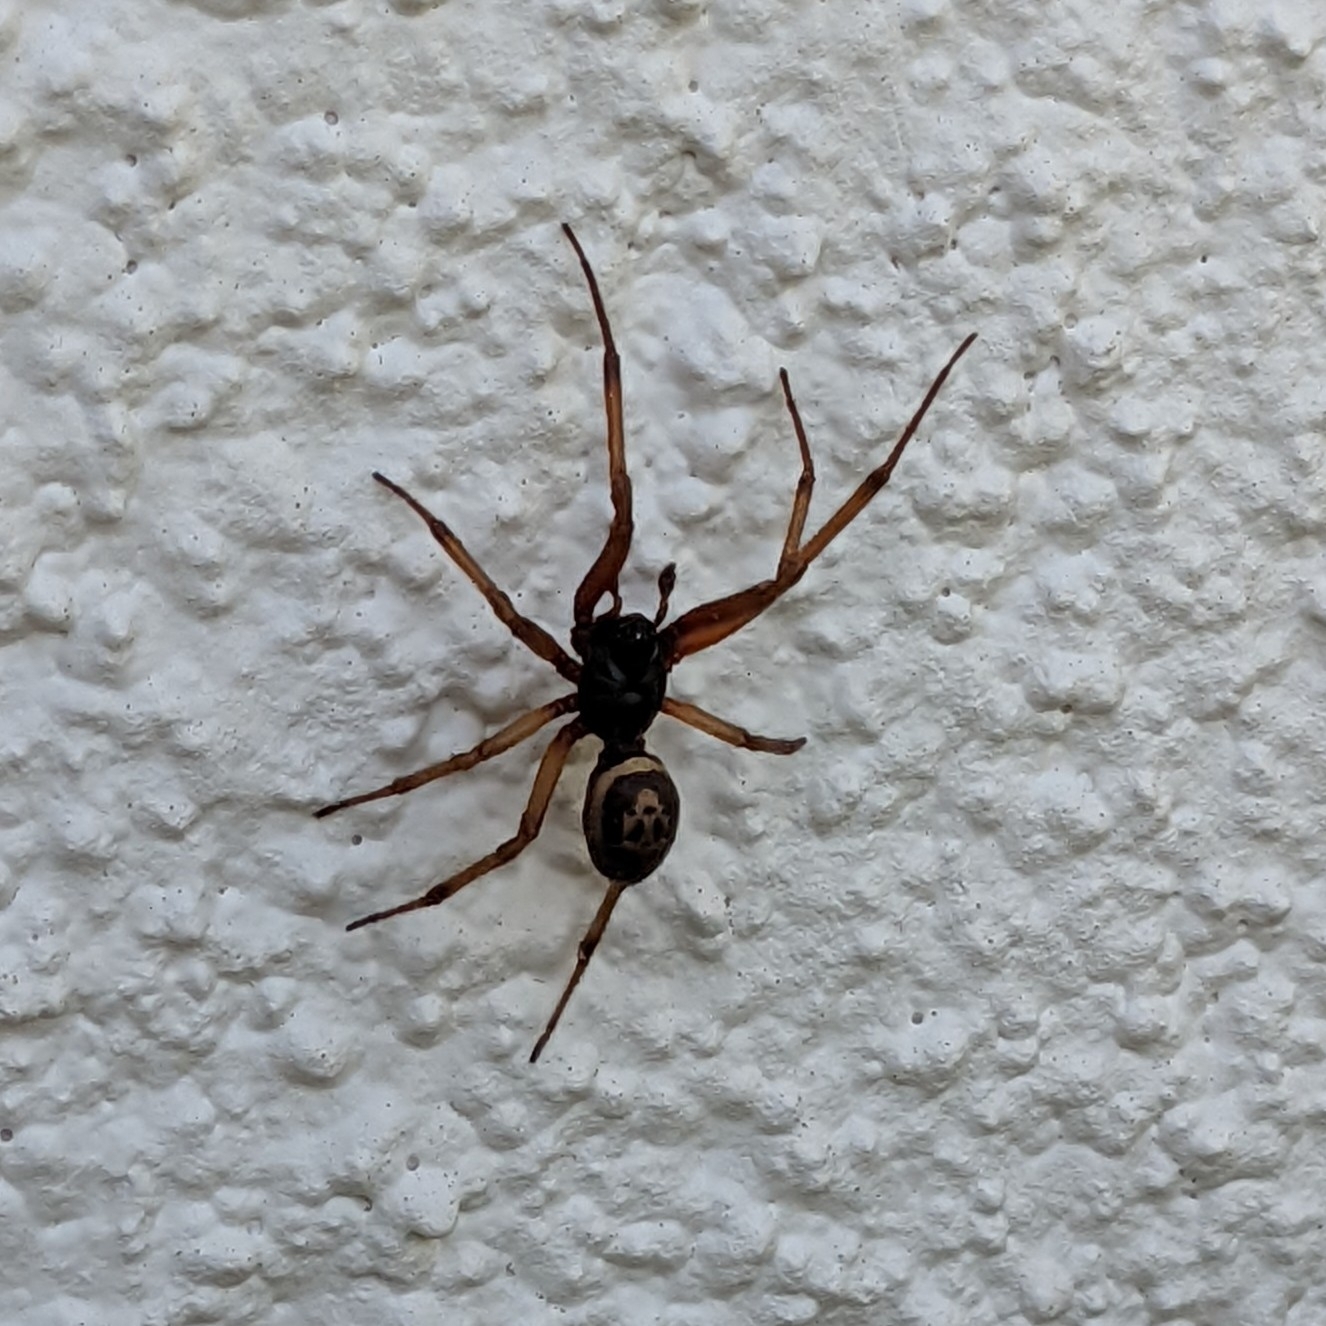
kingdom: Animalia
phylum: Arthropoda
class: Arachnida
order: Araneae
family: Theridiidae
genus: Steatoda
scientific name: Steatoda nobilis
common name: Cobweb weaver
